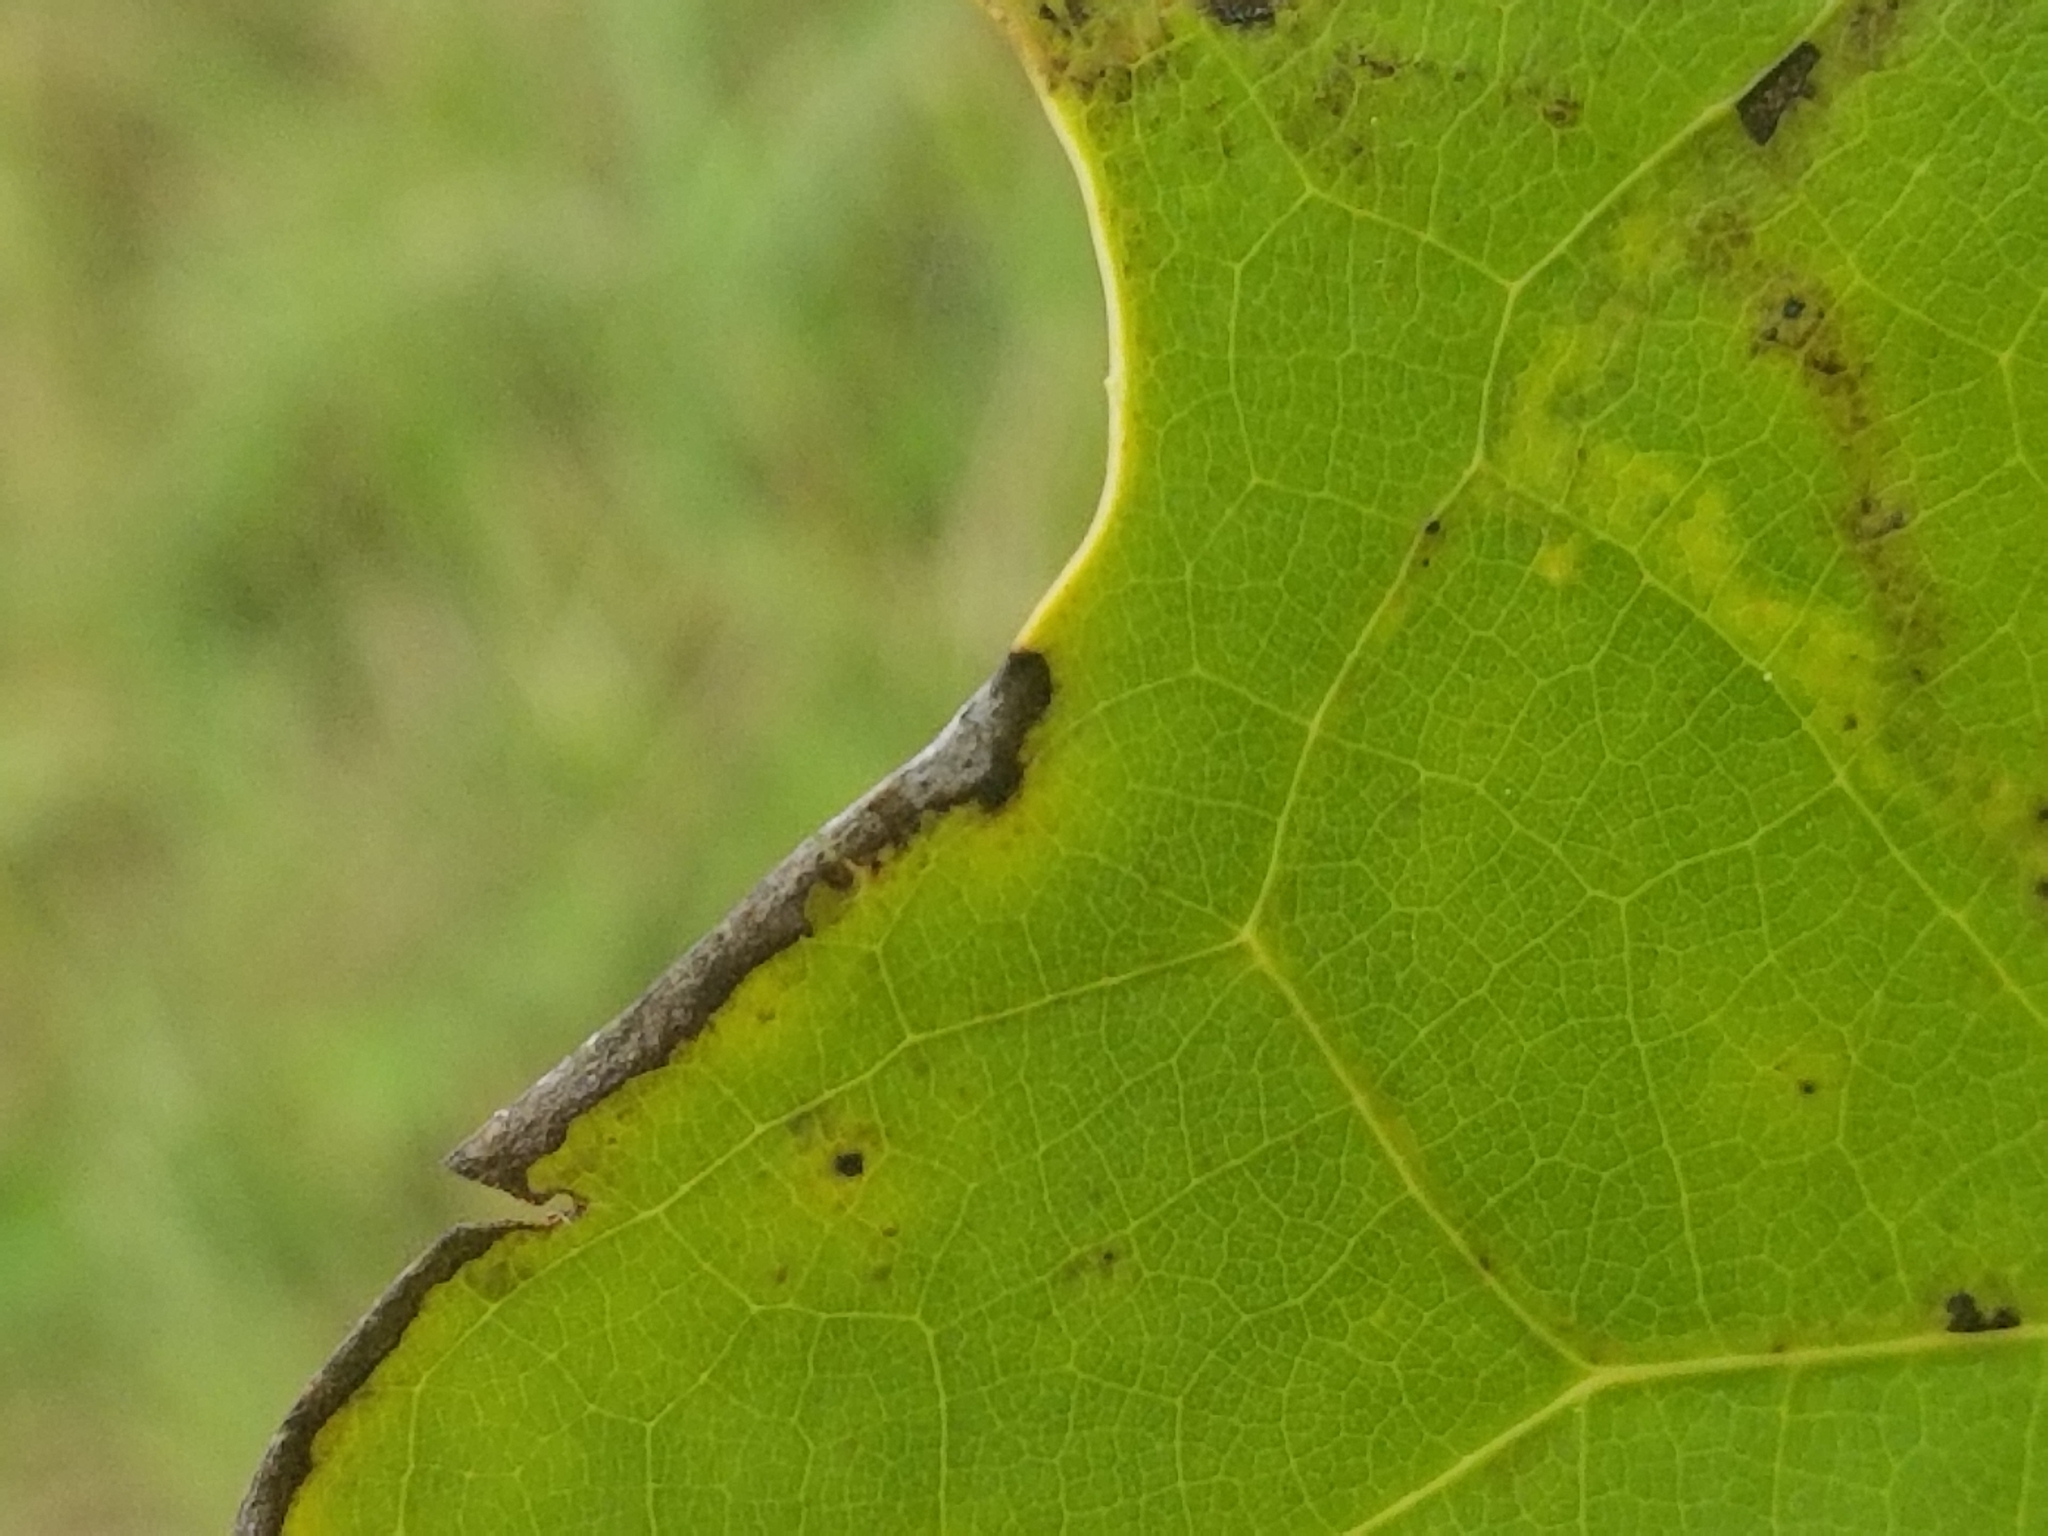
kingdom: Animalia
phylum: Arthropoda
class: Insecta
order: Lepidoptera
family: Gracillariidae
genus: Phyllocnistis
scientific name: Phyllocnistis liriodendronella
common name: Tulip tree leaf miner
